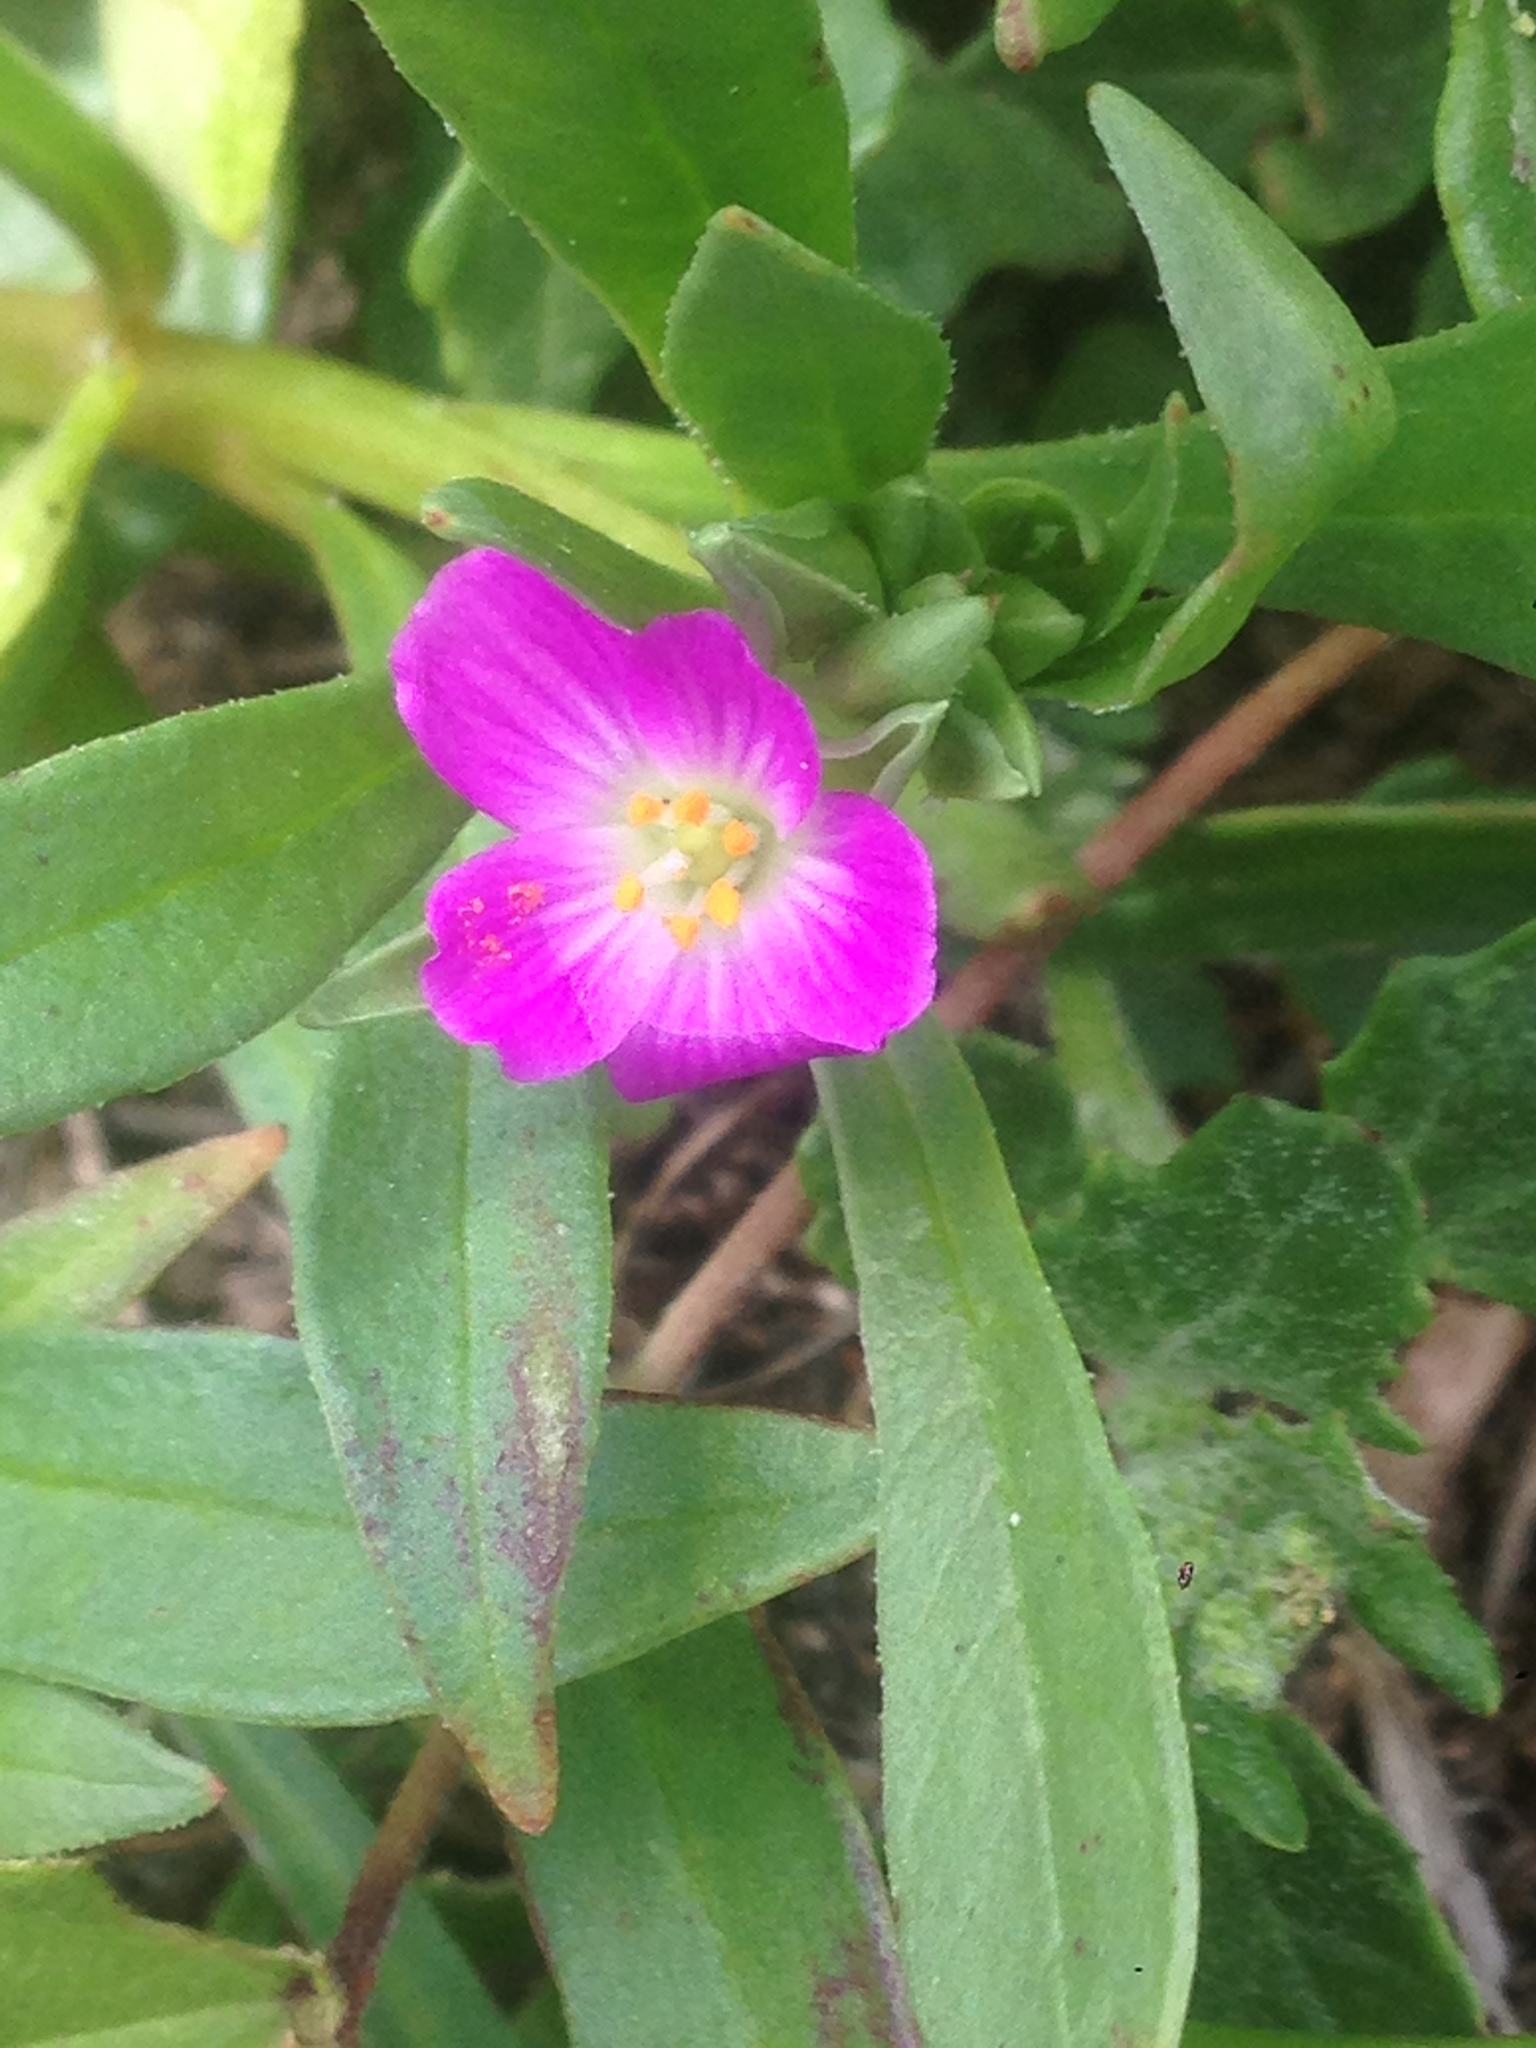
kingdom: Plantae
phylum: Tracheophyta
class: Magnoliopsida
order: Caryophyllales
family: Montiaceae
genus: Calandrinia
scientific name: Calandrinia menziesii
